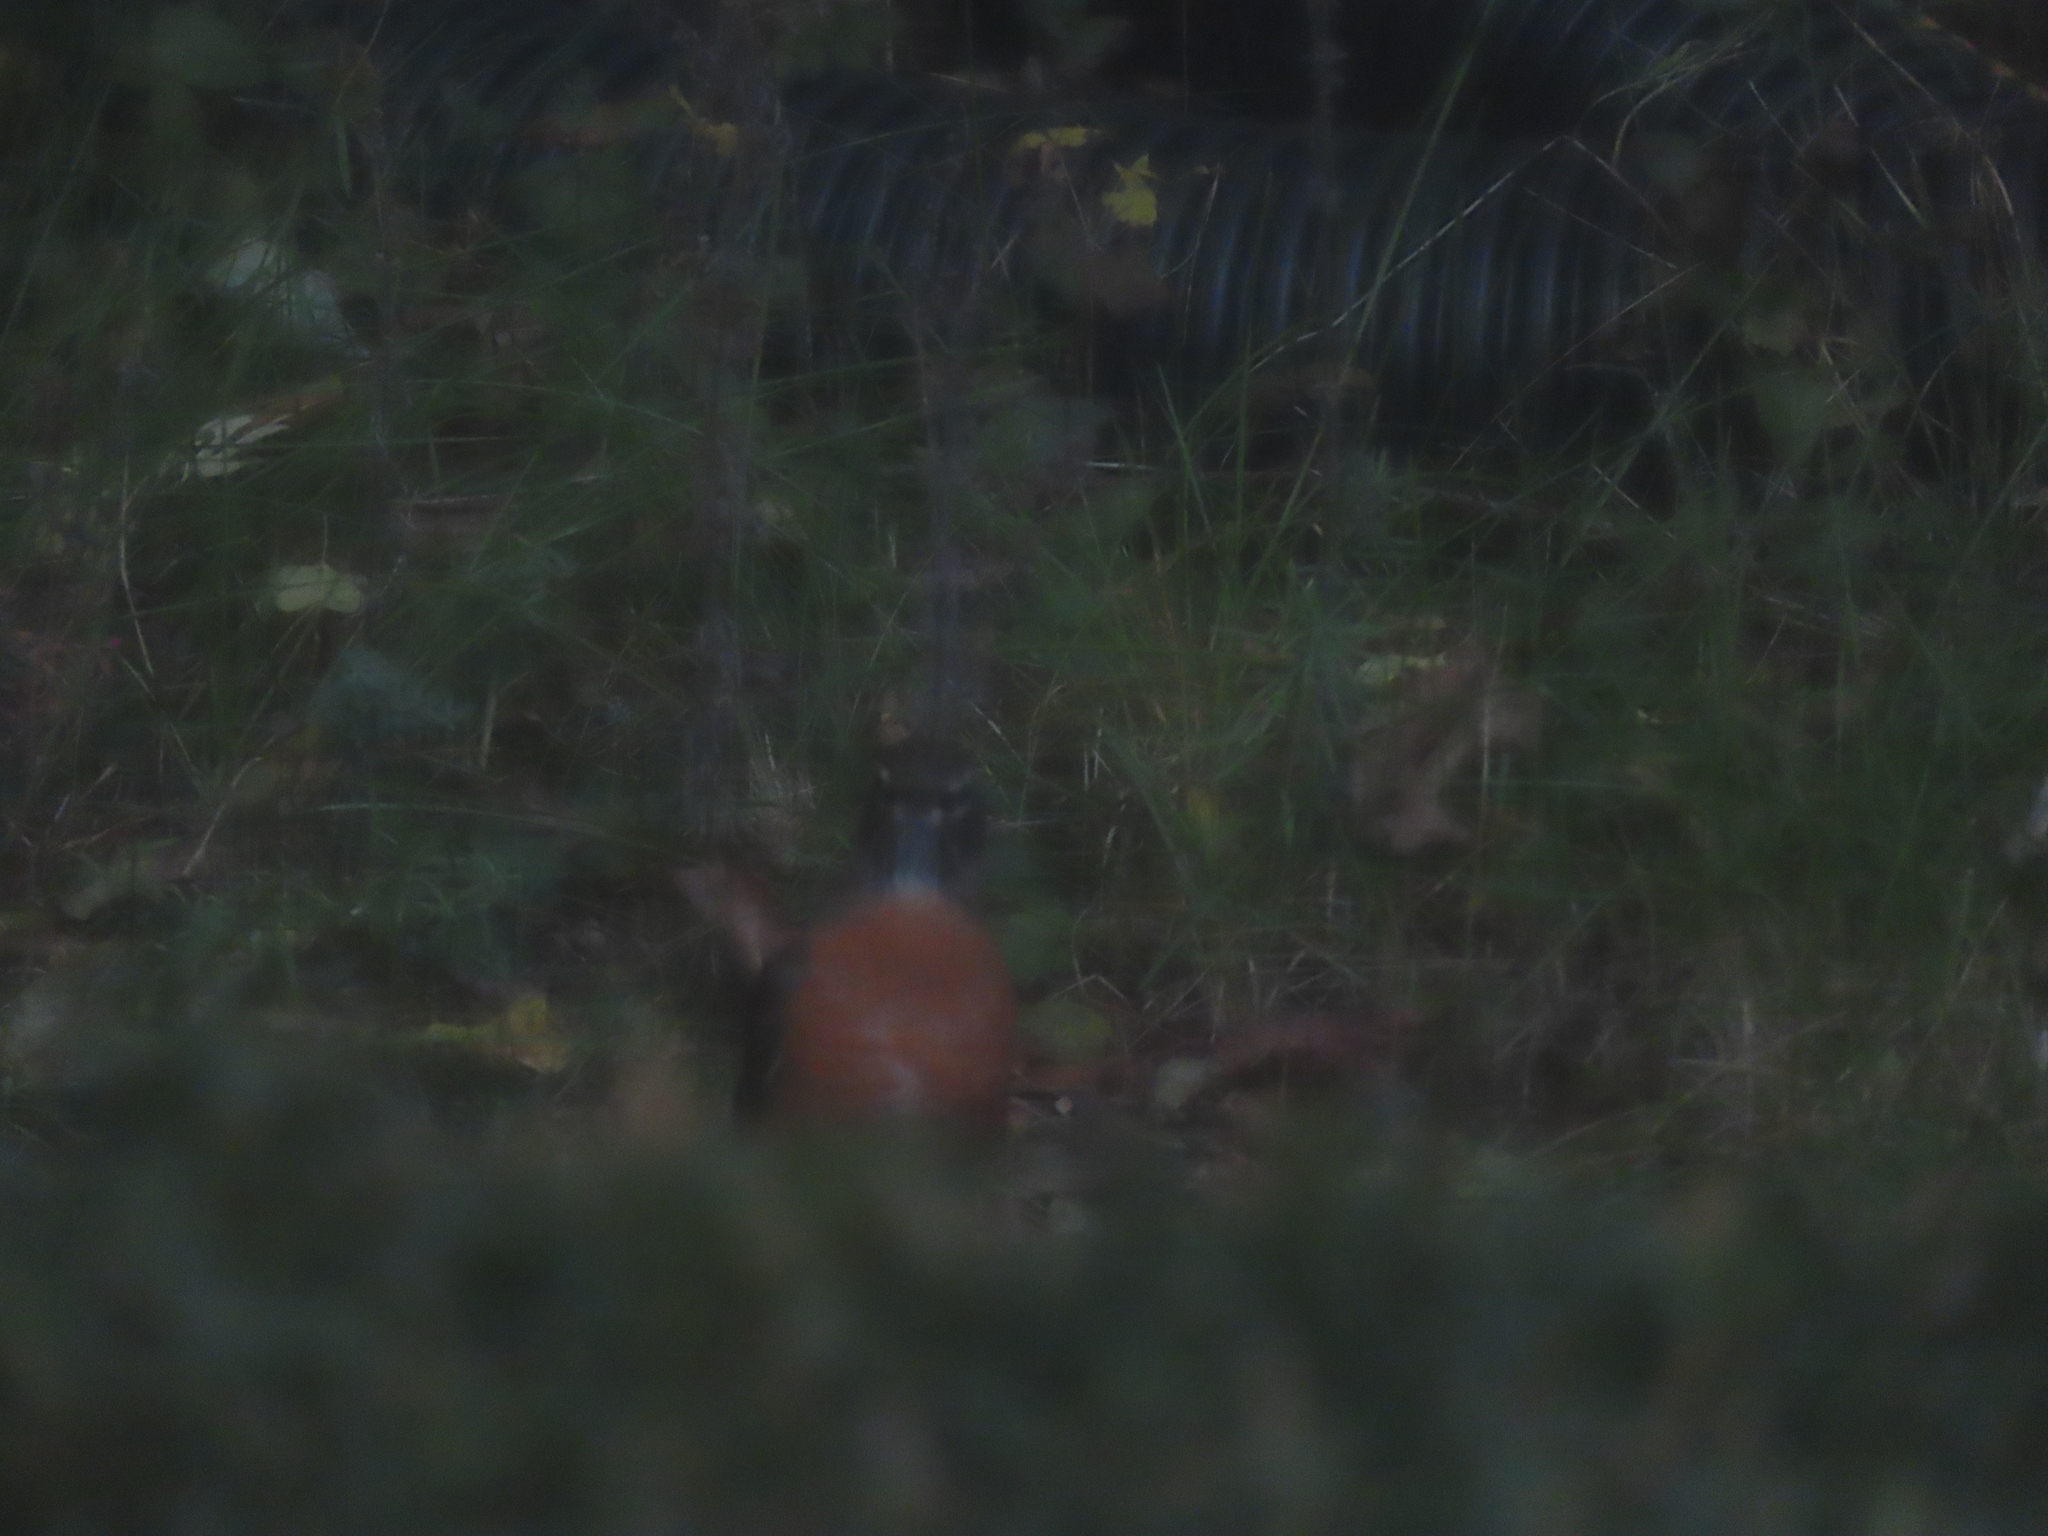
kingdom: Animalia
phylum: Chordata
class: Aves
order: Passeriformes
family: Turdidae
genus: Turdus
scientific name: Turdus migratorius
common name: American robin
